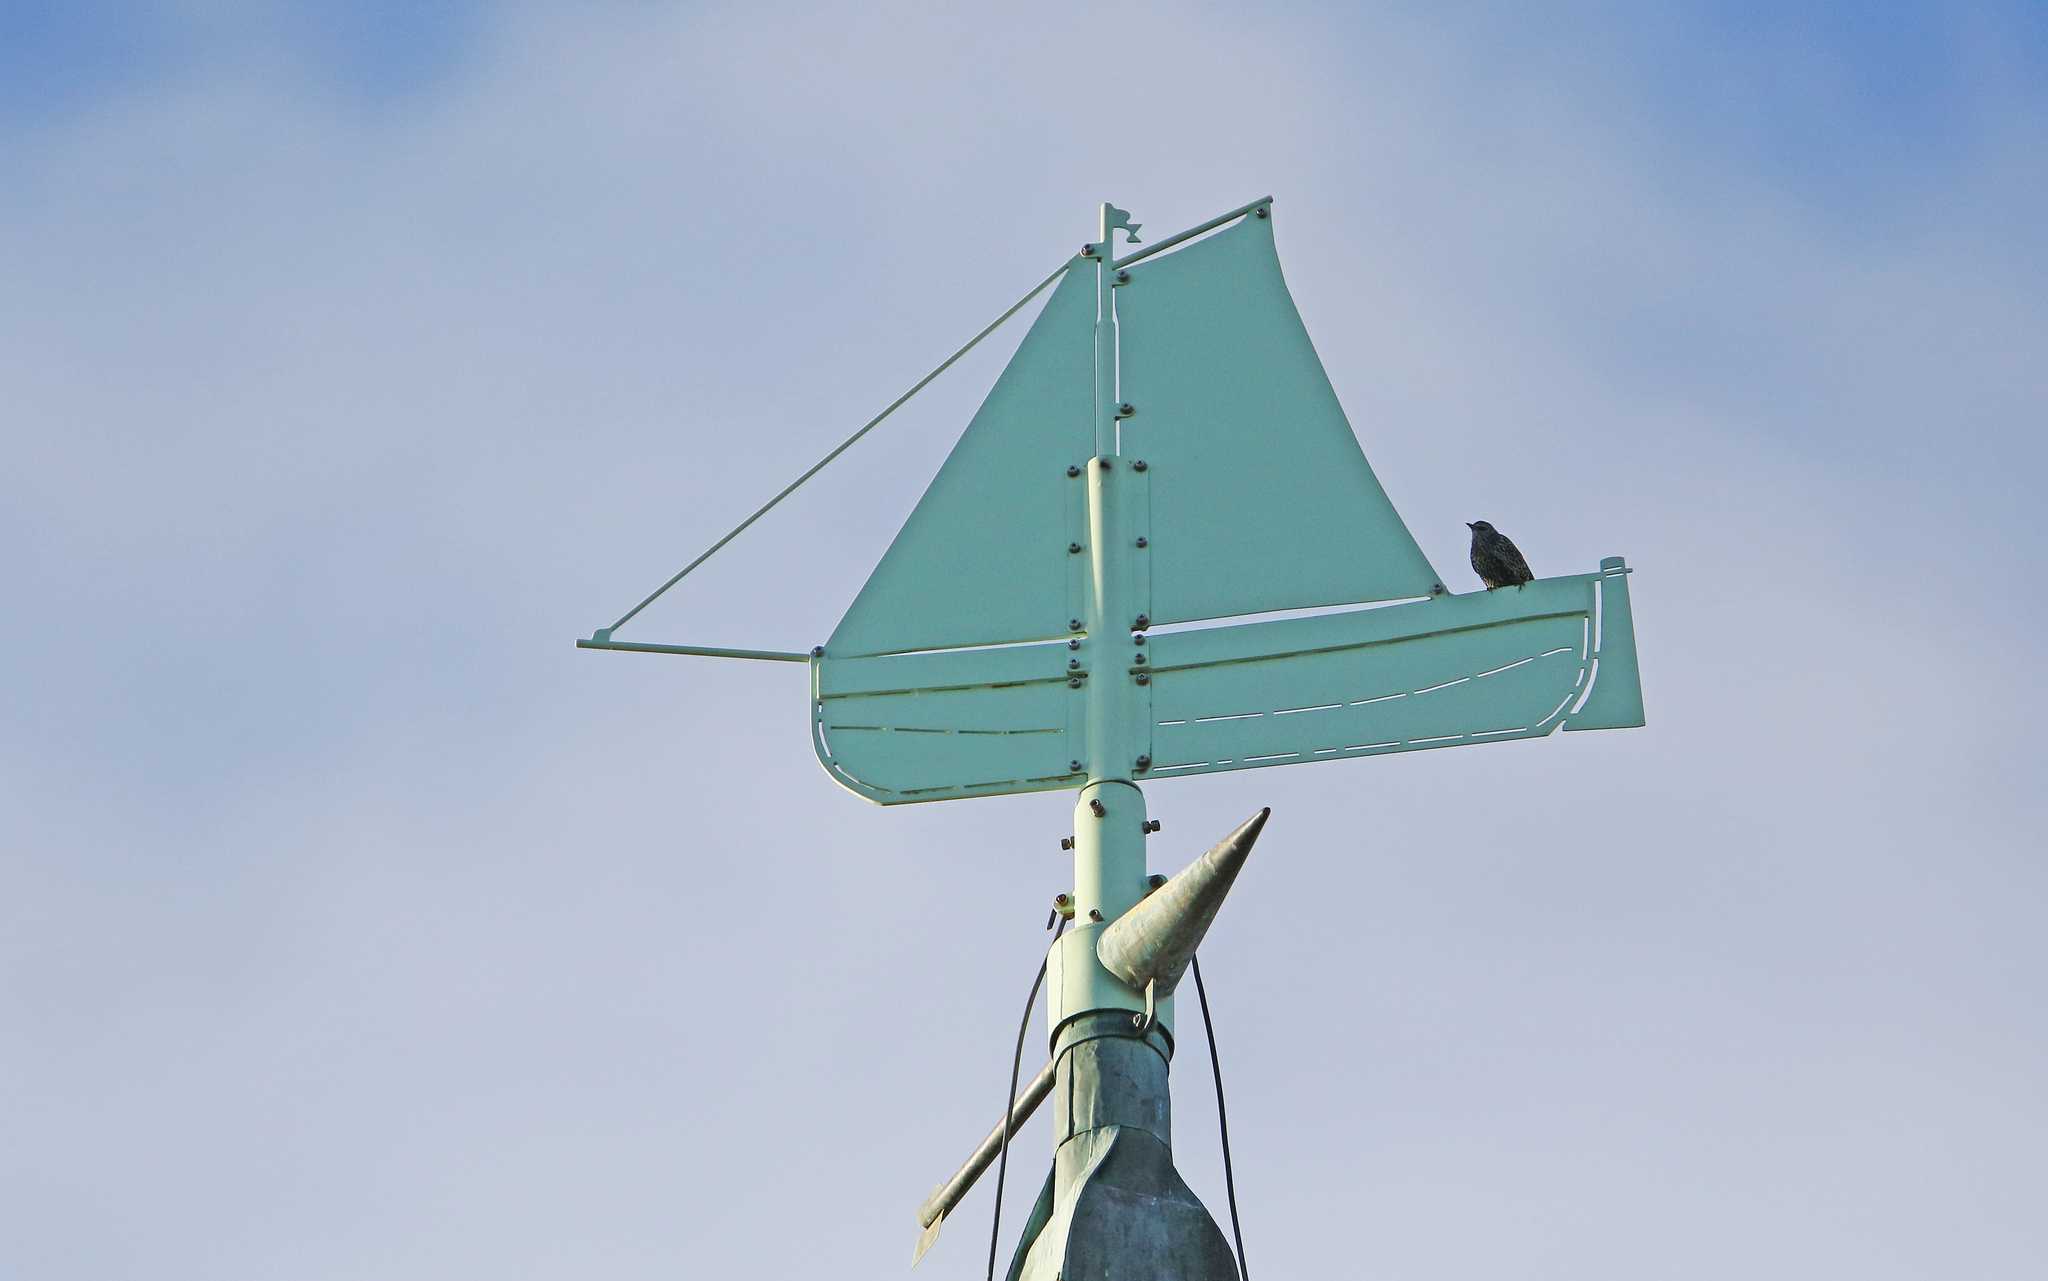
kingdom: Animalia
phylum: Chordata
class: Aves
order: Passeriformes
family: Sturnidae
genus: Sturnus
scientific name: Sturnus vulgaris
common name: Common starling
